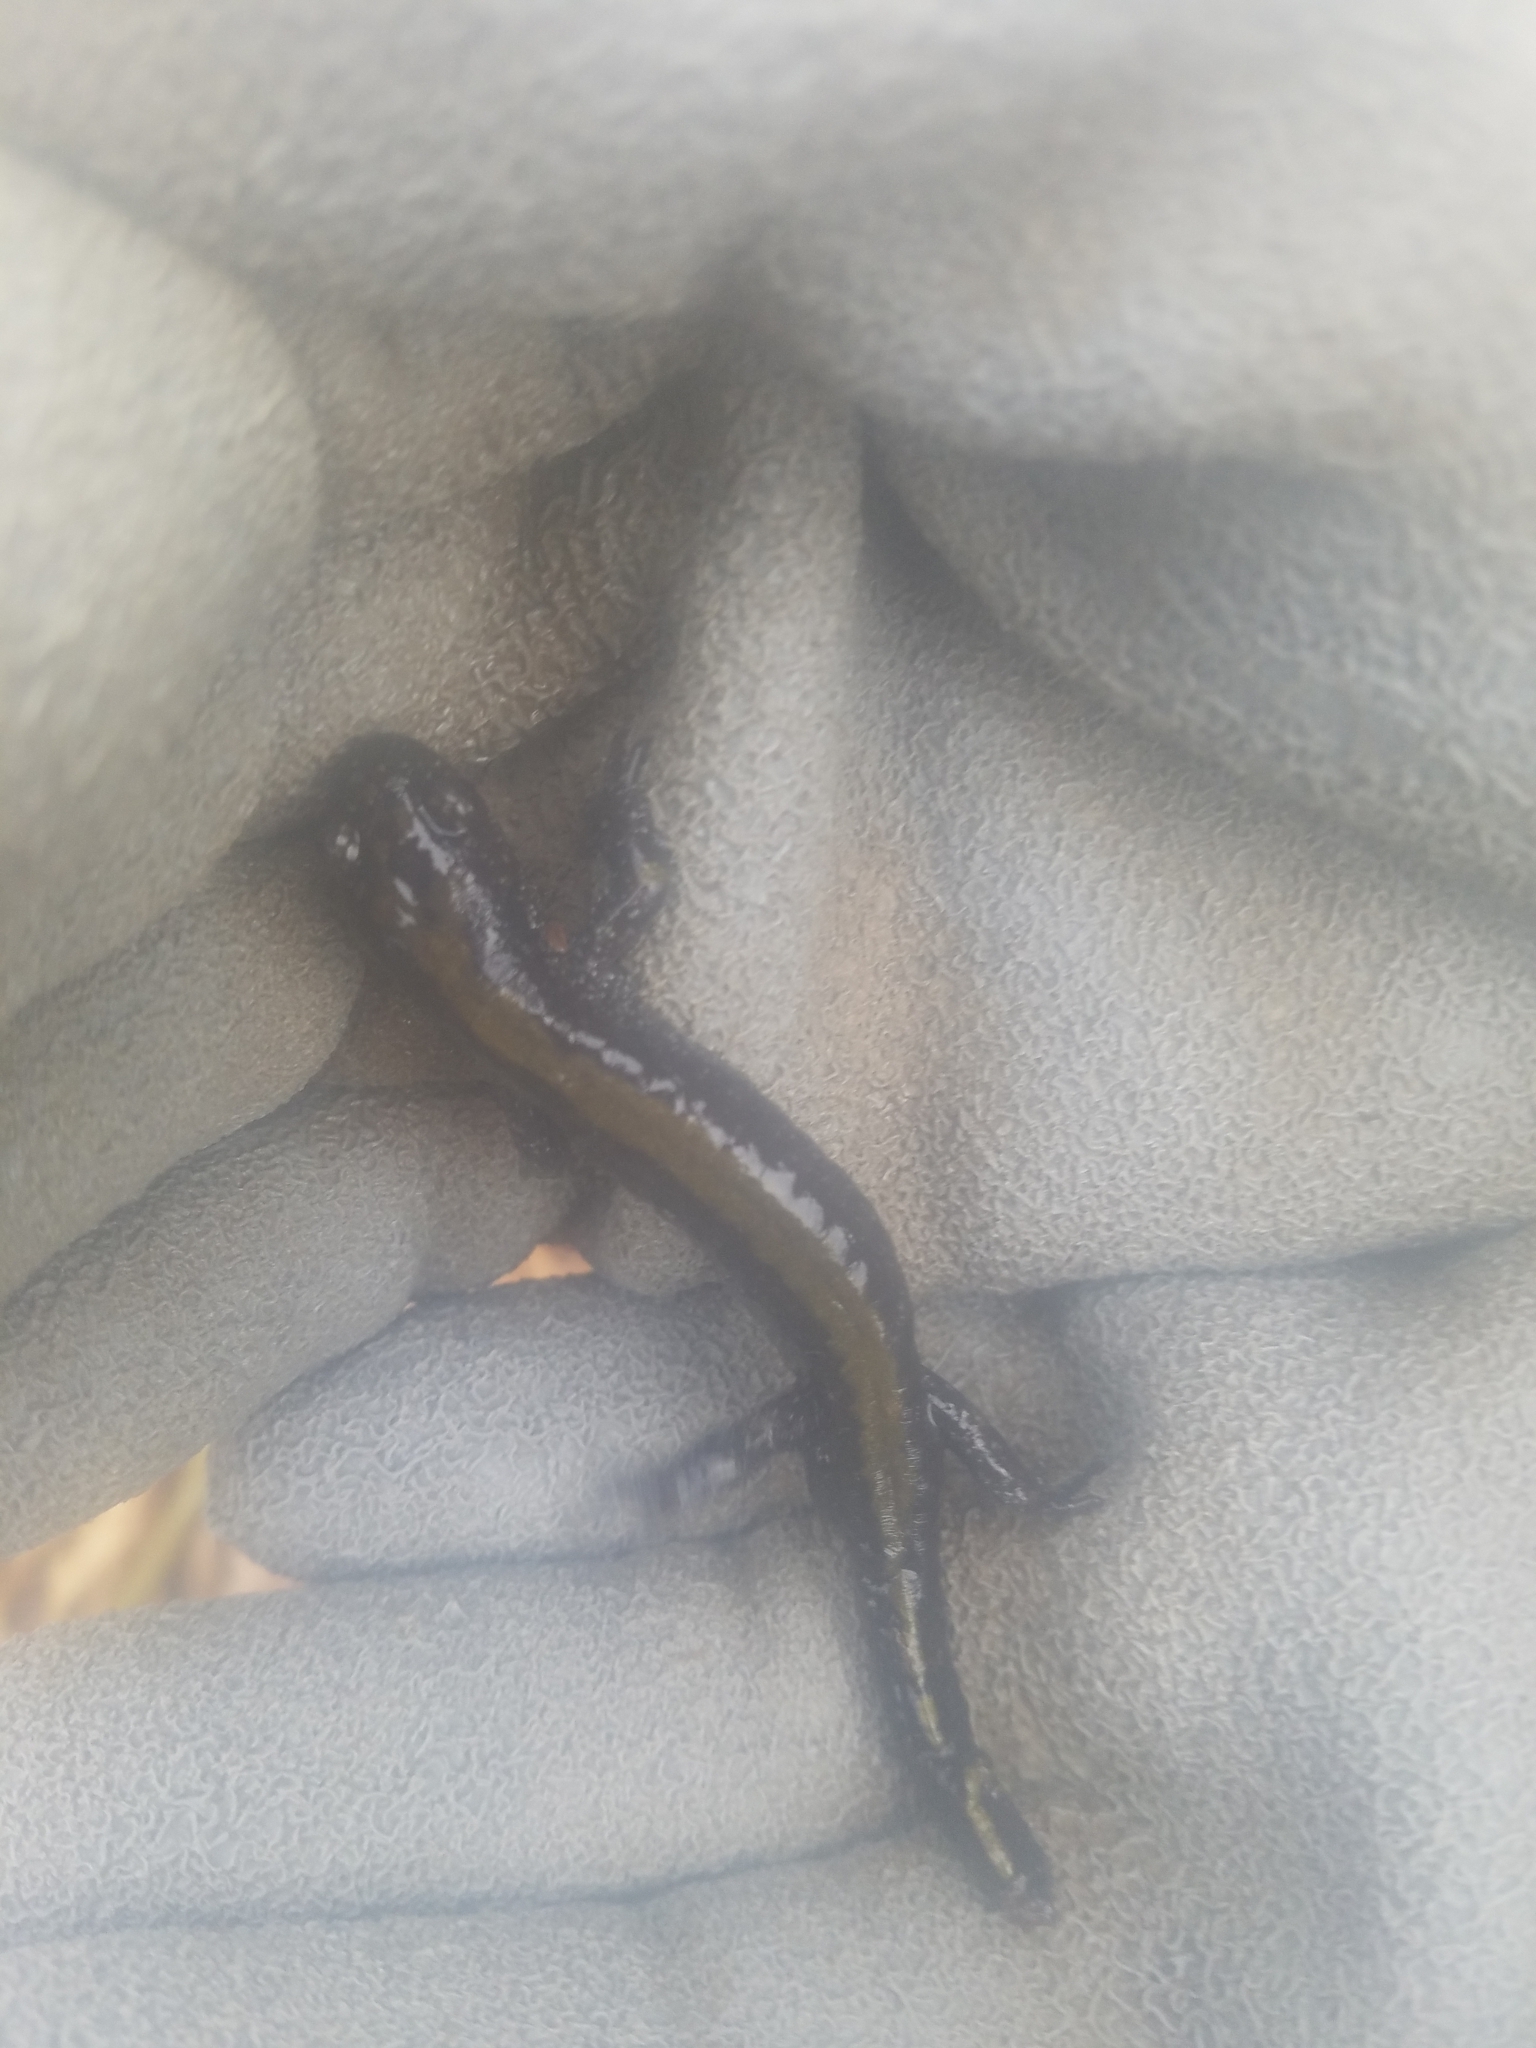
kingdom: Animalia
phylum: Chordata
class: Amphibia
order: Caudata
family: Ambystomatidae
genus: Ambystoma
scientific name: Ambystoma macrodactylum
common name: Long-toed salamander
